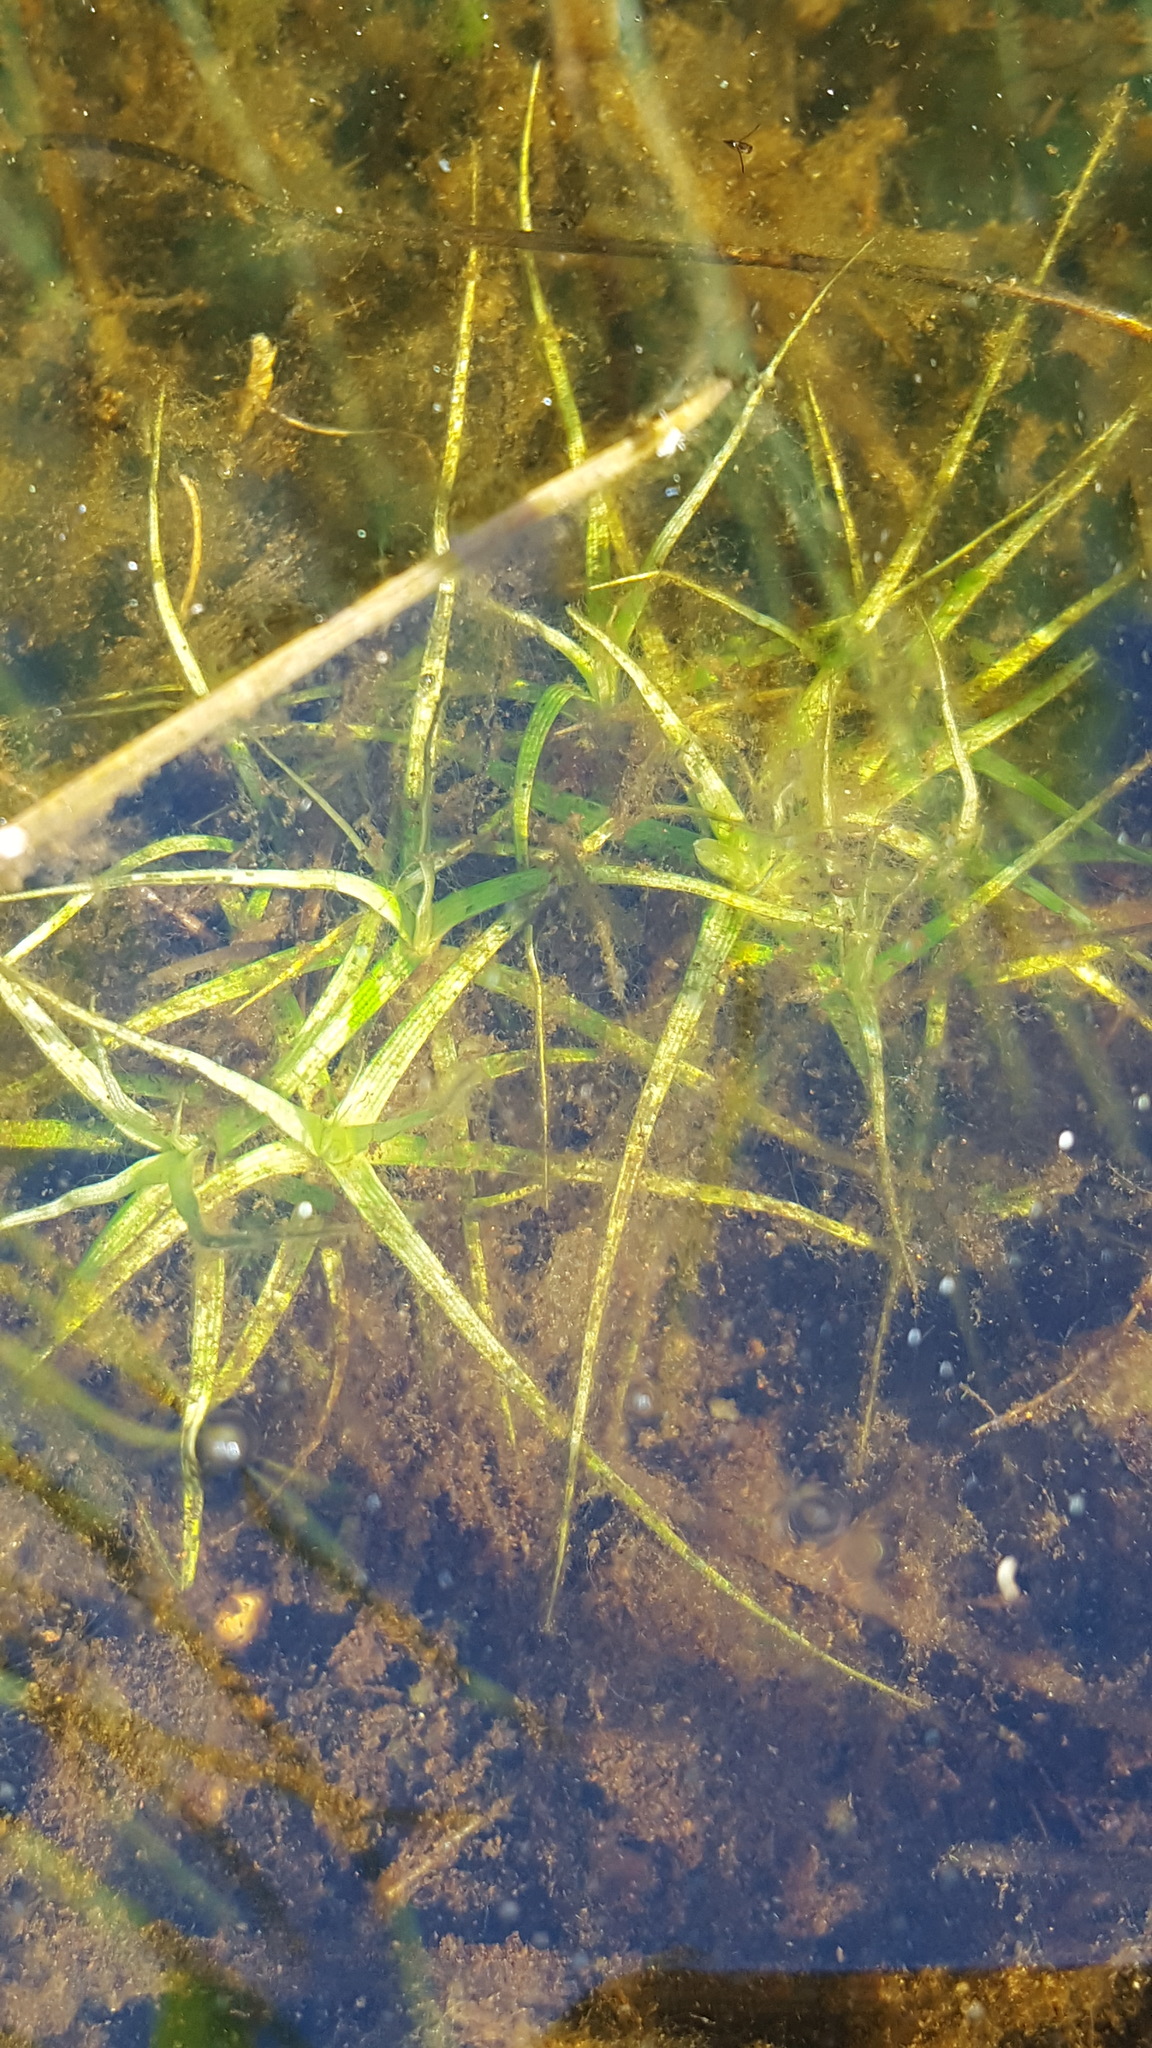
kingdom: Plantae
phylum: Tracheophyta
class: Liliopsida
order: Poales
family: Eriocaulaceae
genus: Eriocaulon
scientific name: Eriocaulon aquaticum
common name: Pipewort
